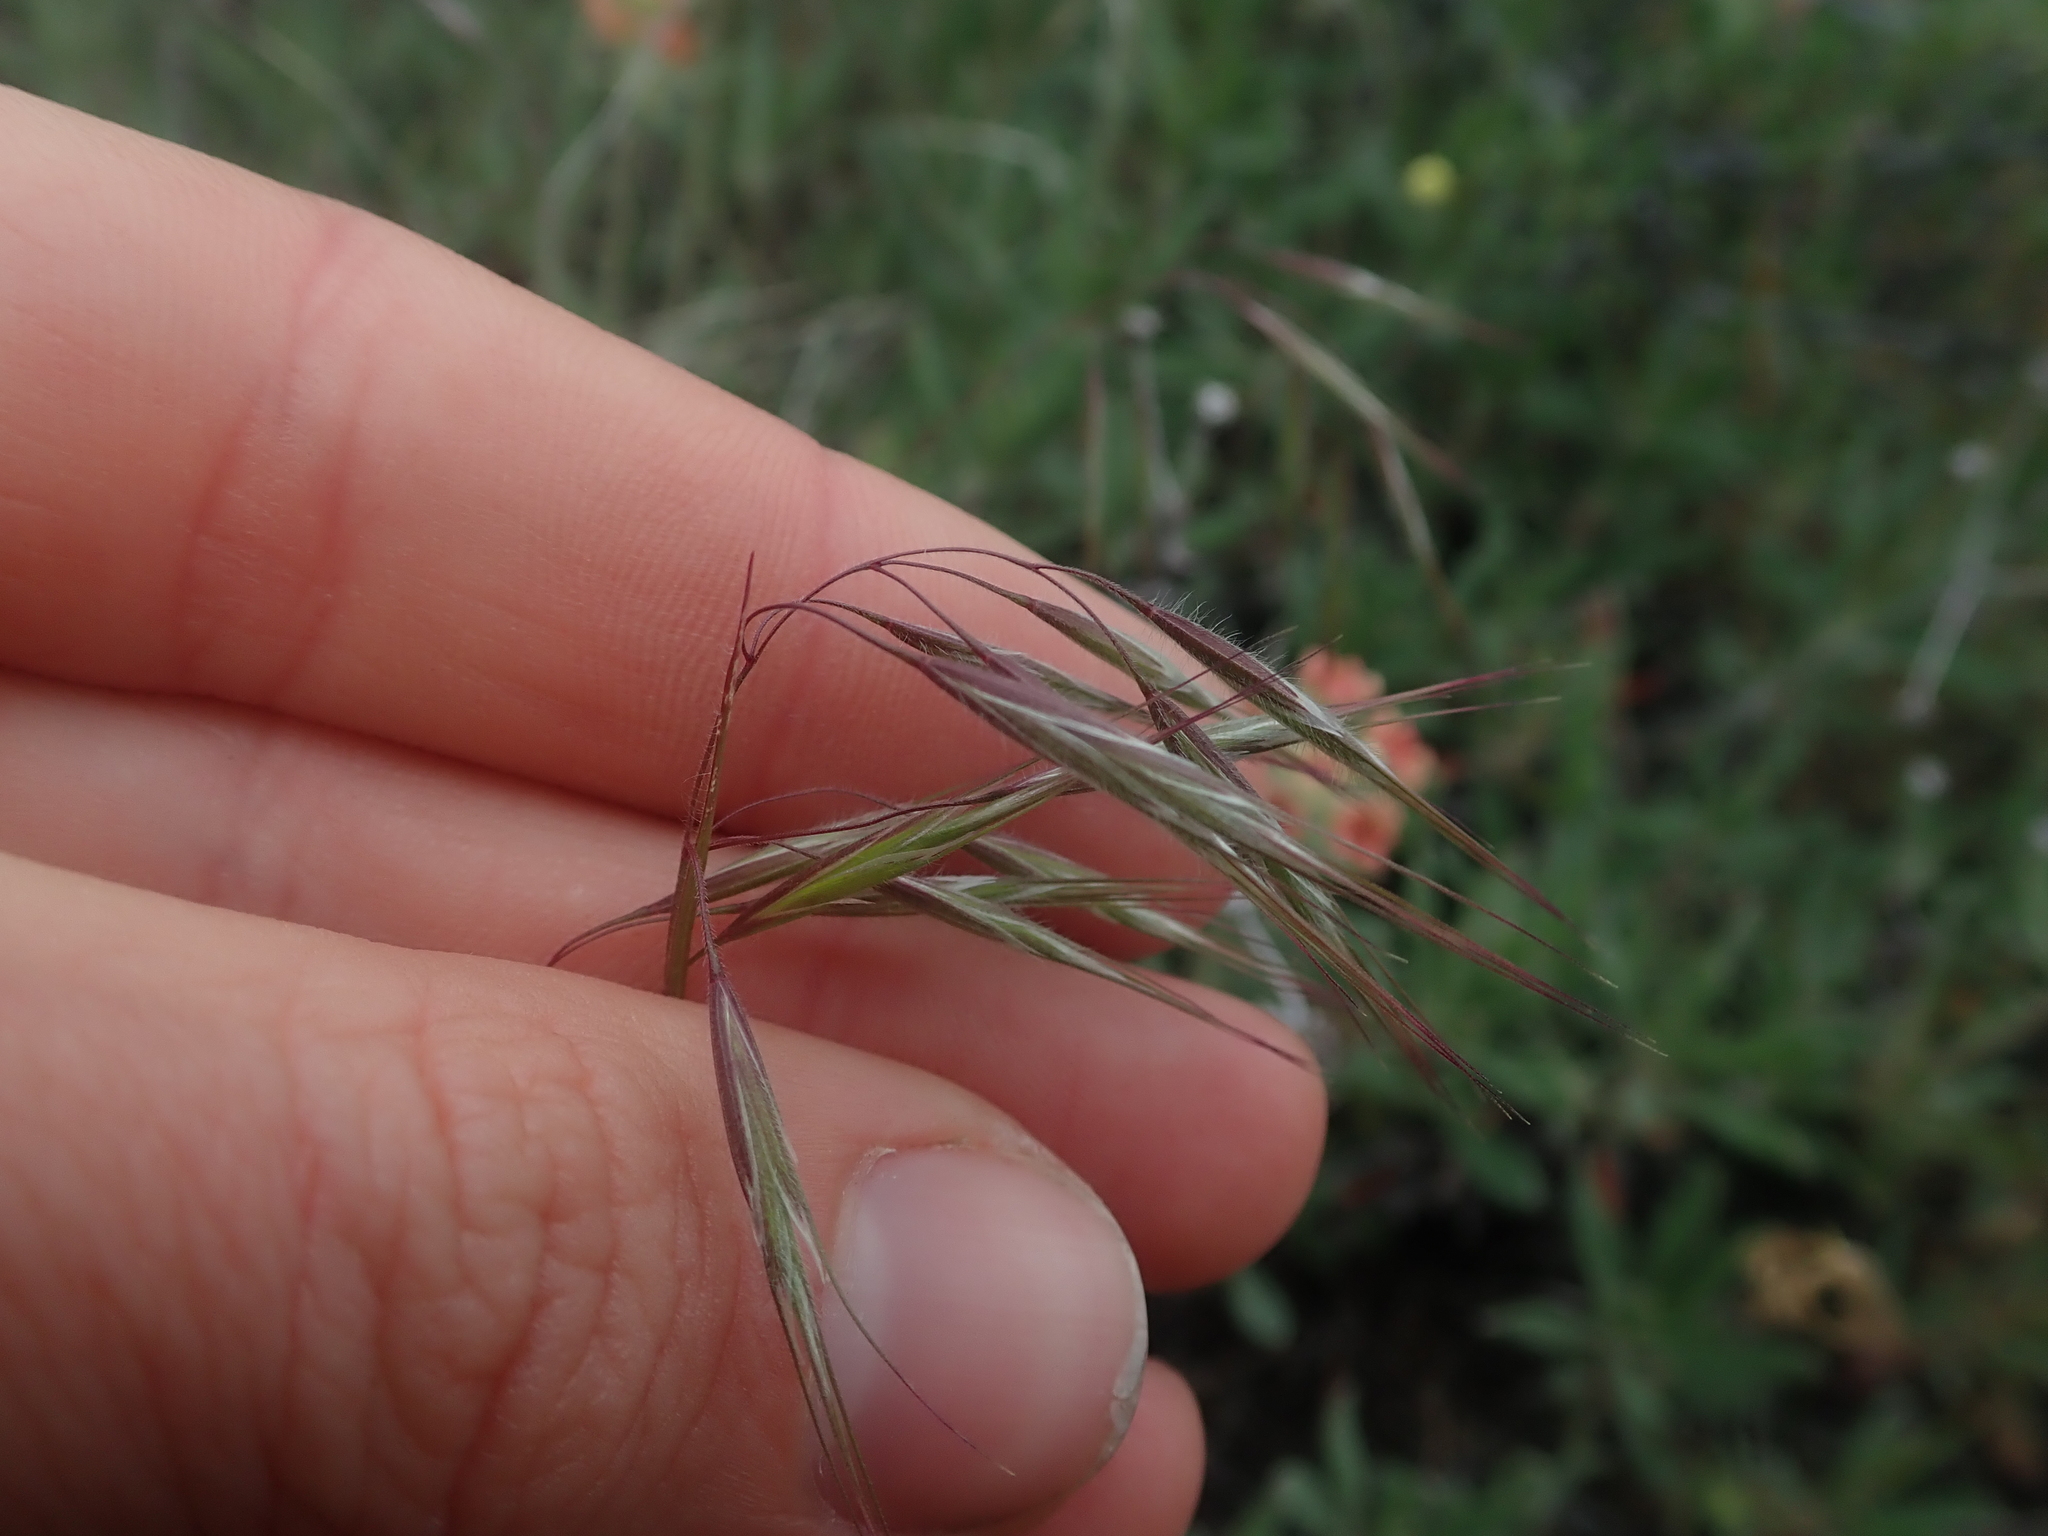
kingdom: Plantae
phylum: Tracheophyta
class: Liliopsida
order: Poales
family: Poaceae
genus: Bromus
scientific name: Bromus tectorum
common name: Cheatgrass
